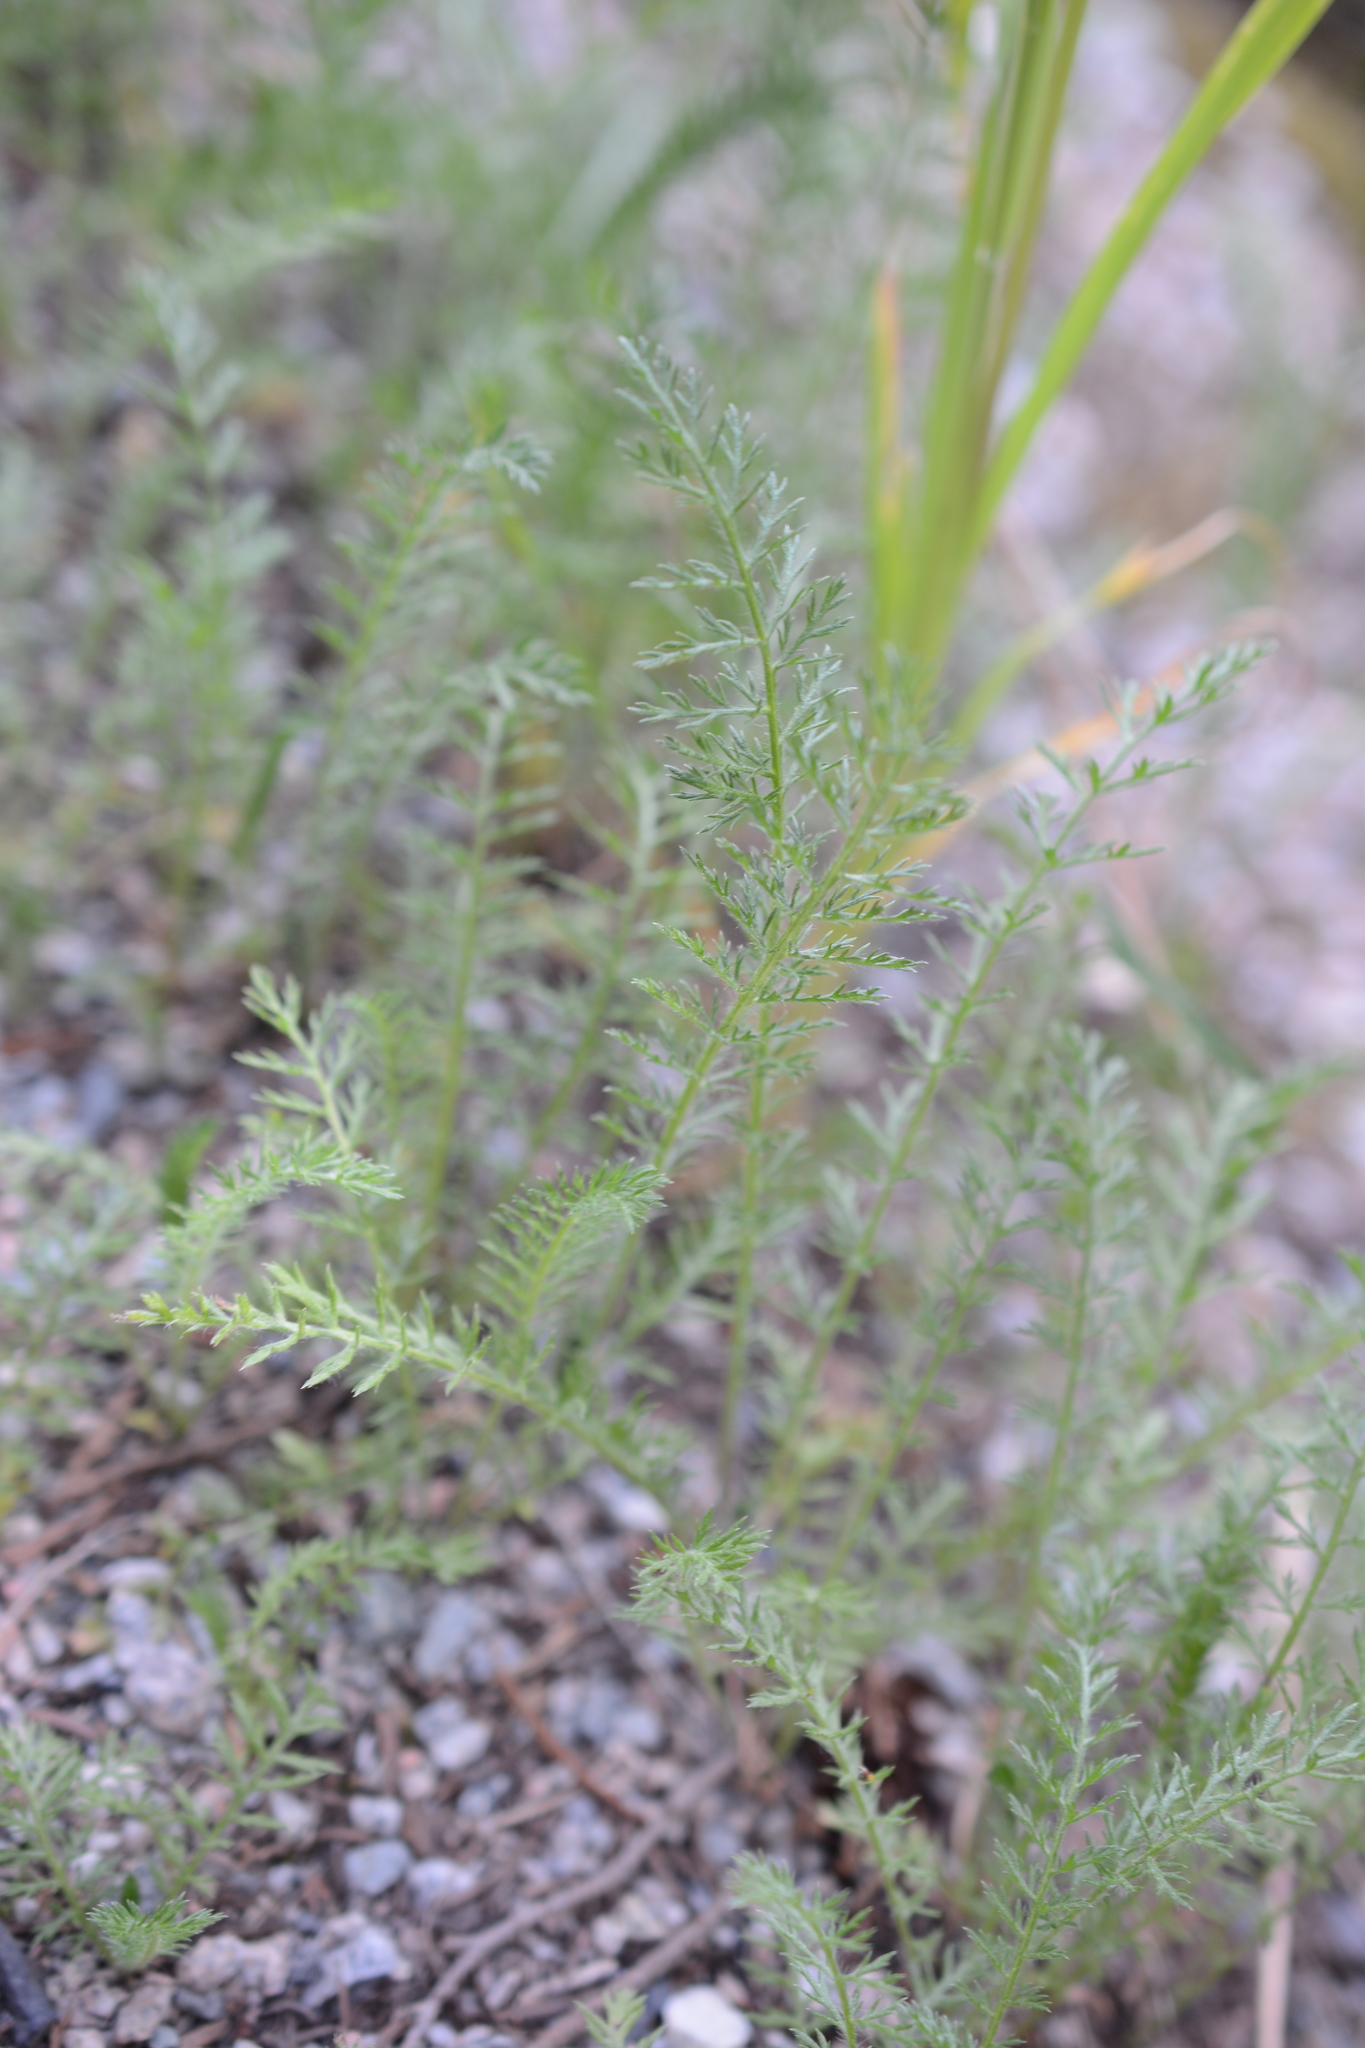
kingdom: Plantae
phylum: Tracheophyta
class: Magnoliopsida
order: Asterales
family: Asteraceae
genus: Achillea
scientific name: Achillea millefolium
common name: Yarrow
